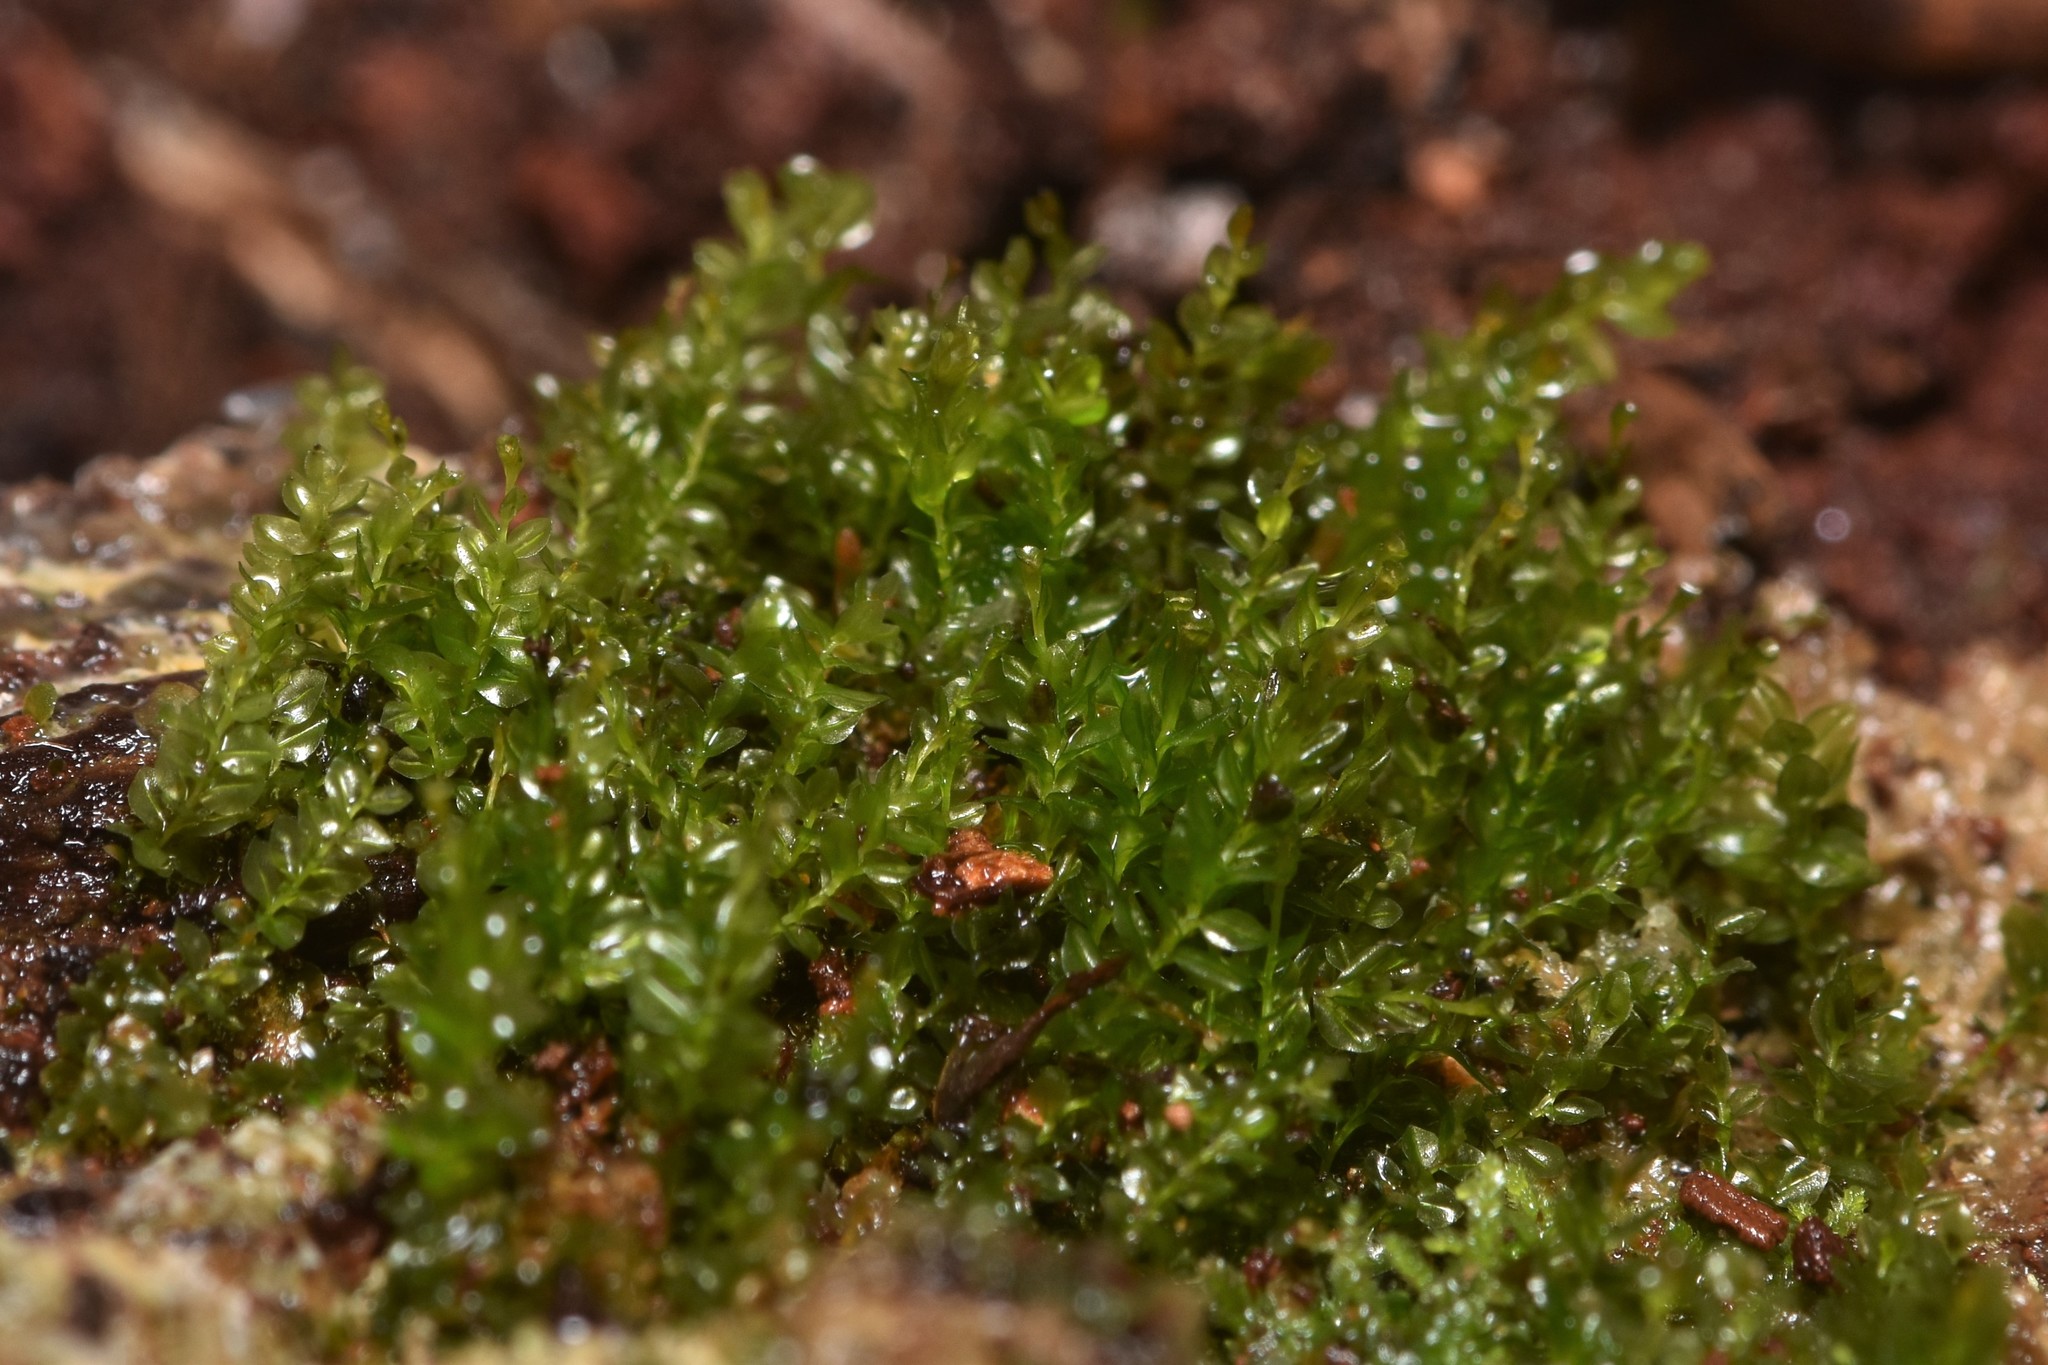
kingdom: Plantae
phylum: Bryophyta
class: Polytrichopsida
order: Tetraphidales
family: Tetraphidaceae
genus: Tetraphis
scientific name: Tetraphis pellucida
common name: Common four-toothed moss
